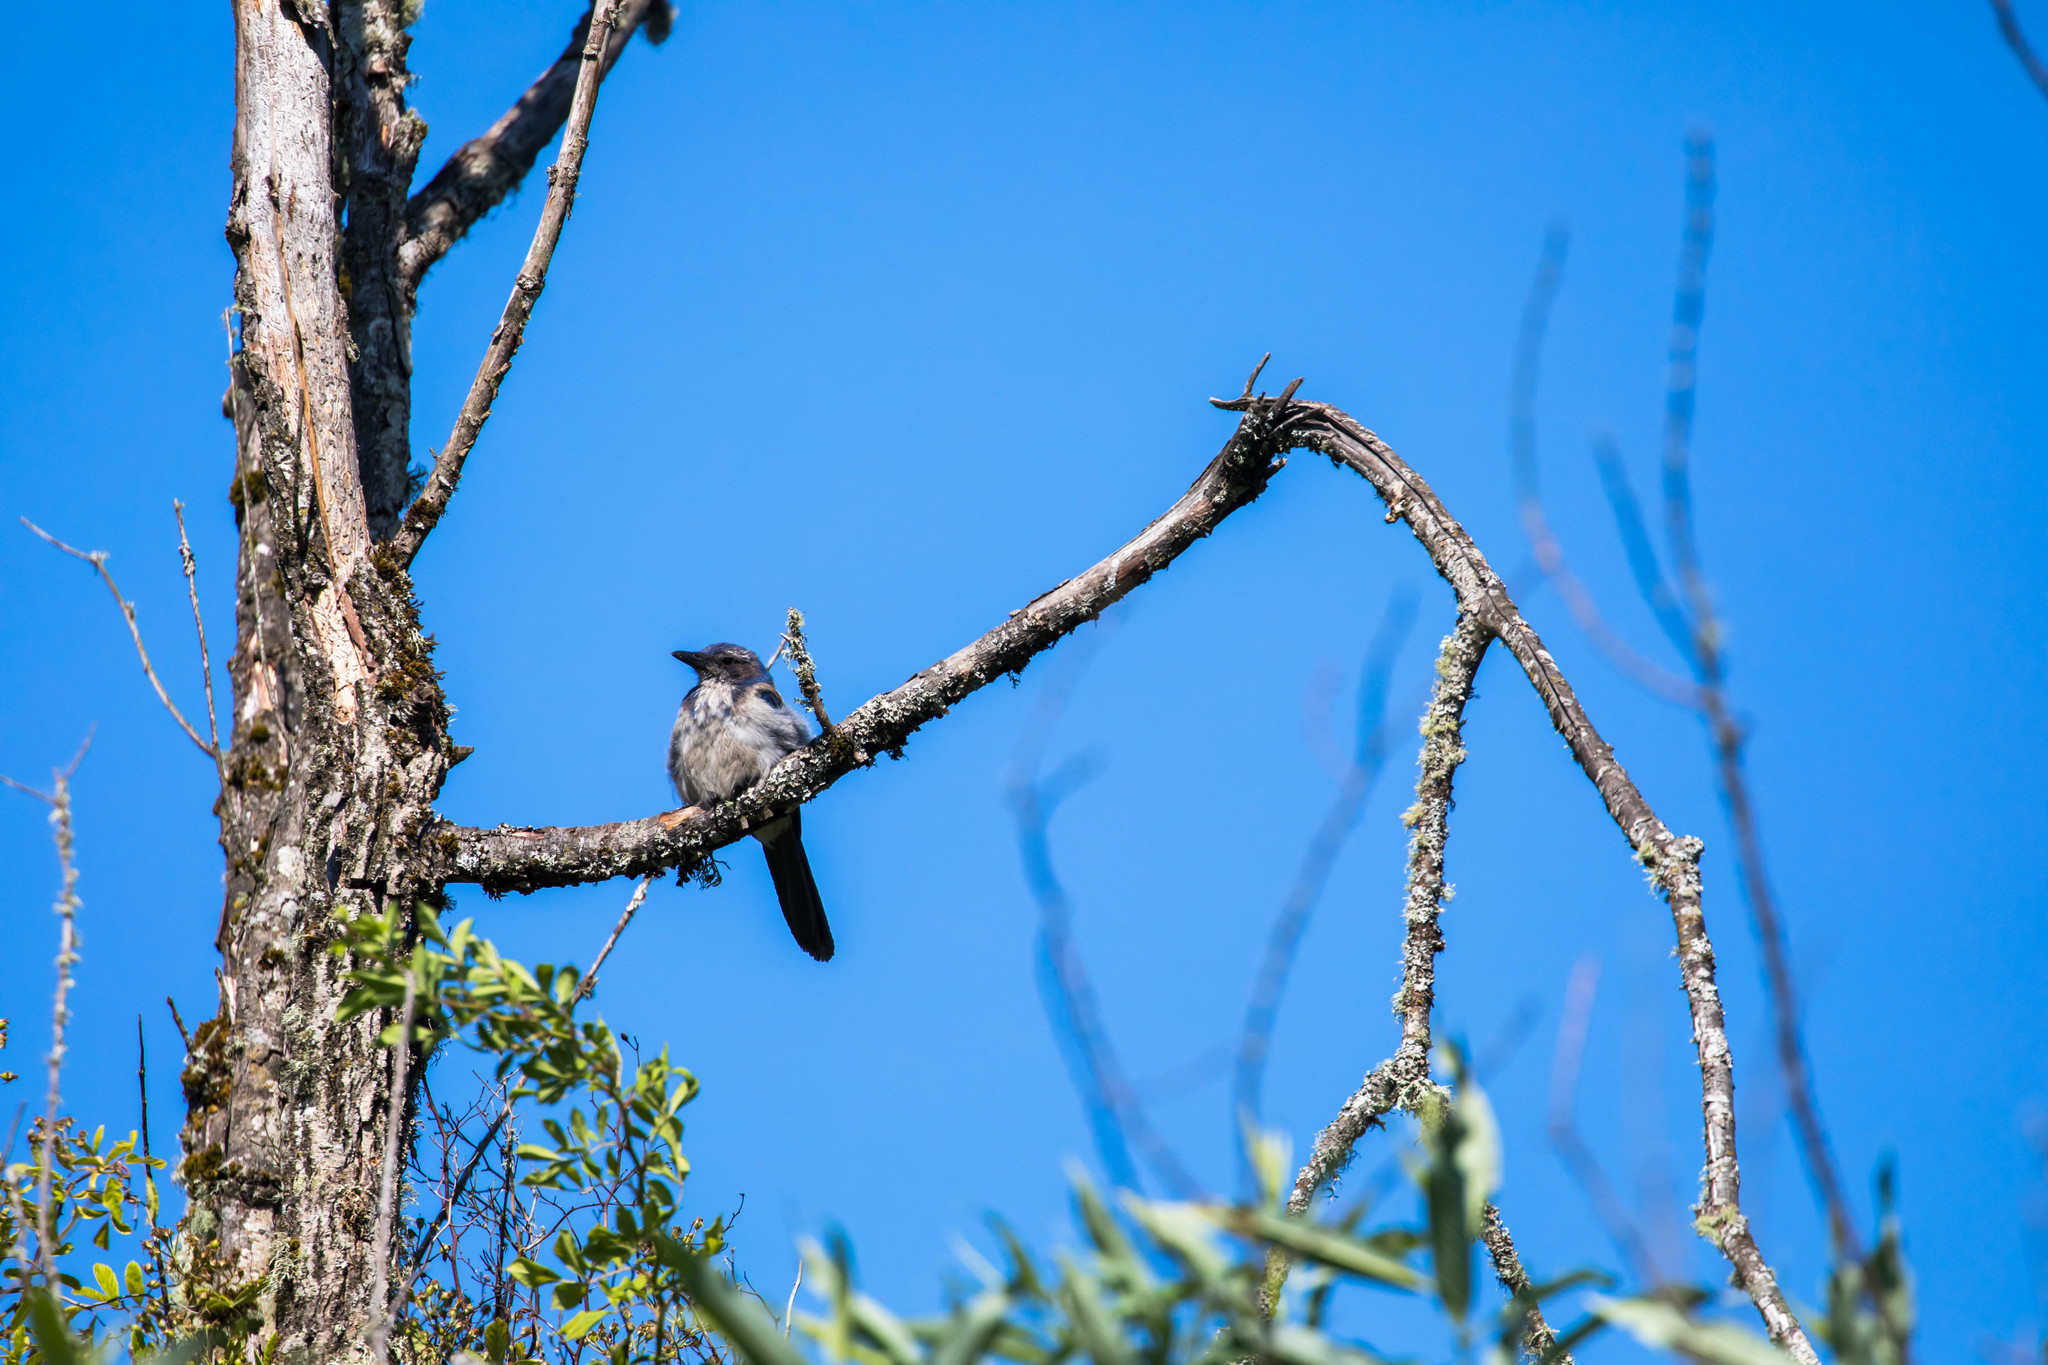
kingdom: Animalia
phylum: Chordata
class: Aves
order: Passeriformes
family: Corvidae
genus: Aphelocoma
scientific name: Aphelocoma californica
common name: California scrub-jay
